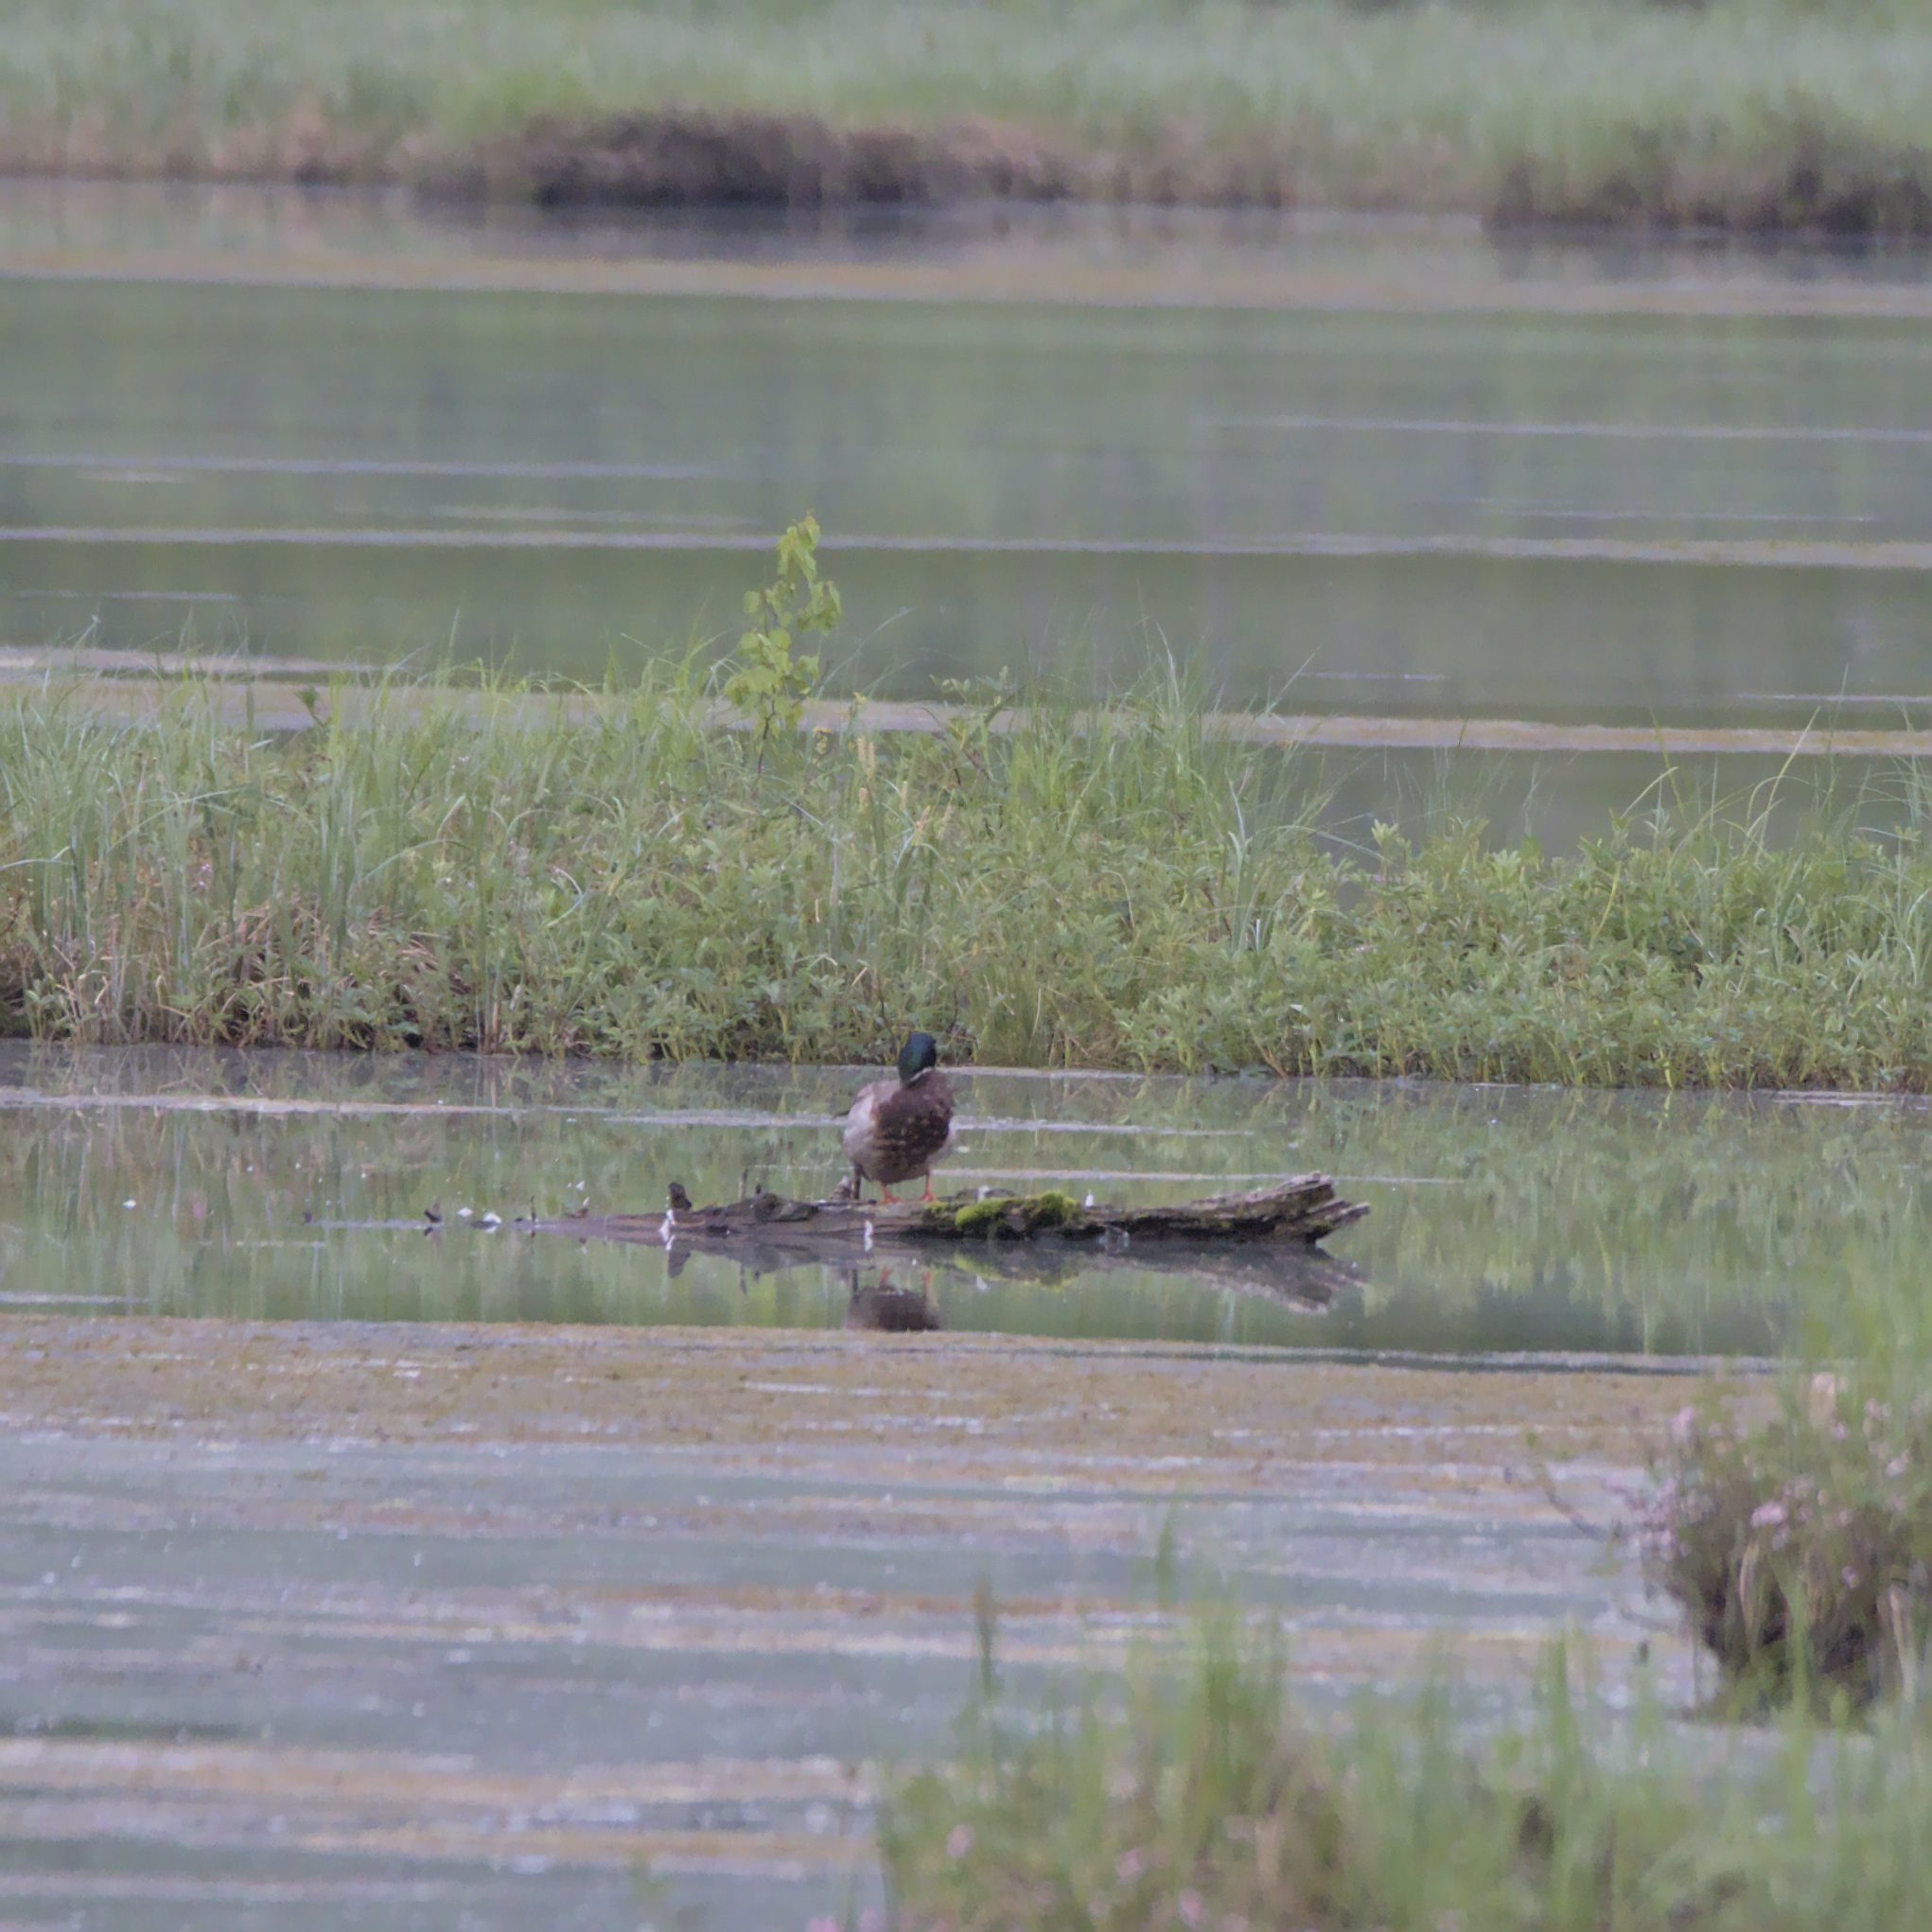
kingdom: Animalia
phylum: Chordata
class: Aves
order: Anseriformes
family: Anatidae
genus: Anas
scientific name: Anas platyrhynchos
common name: Mallard
